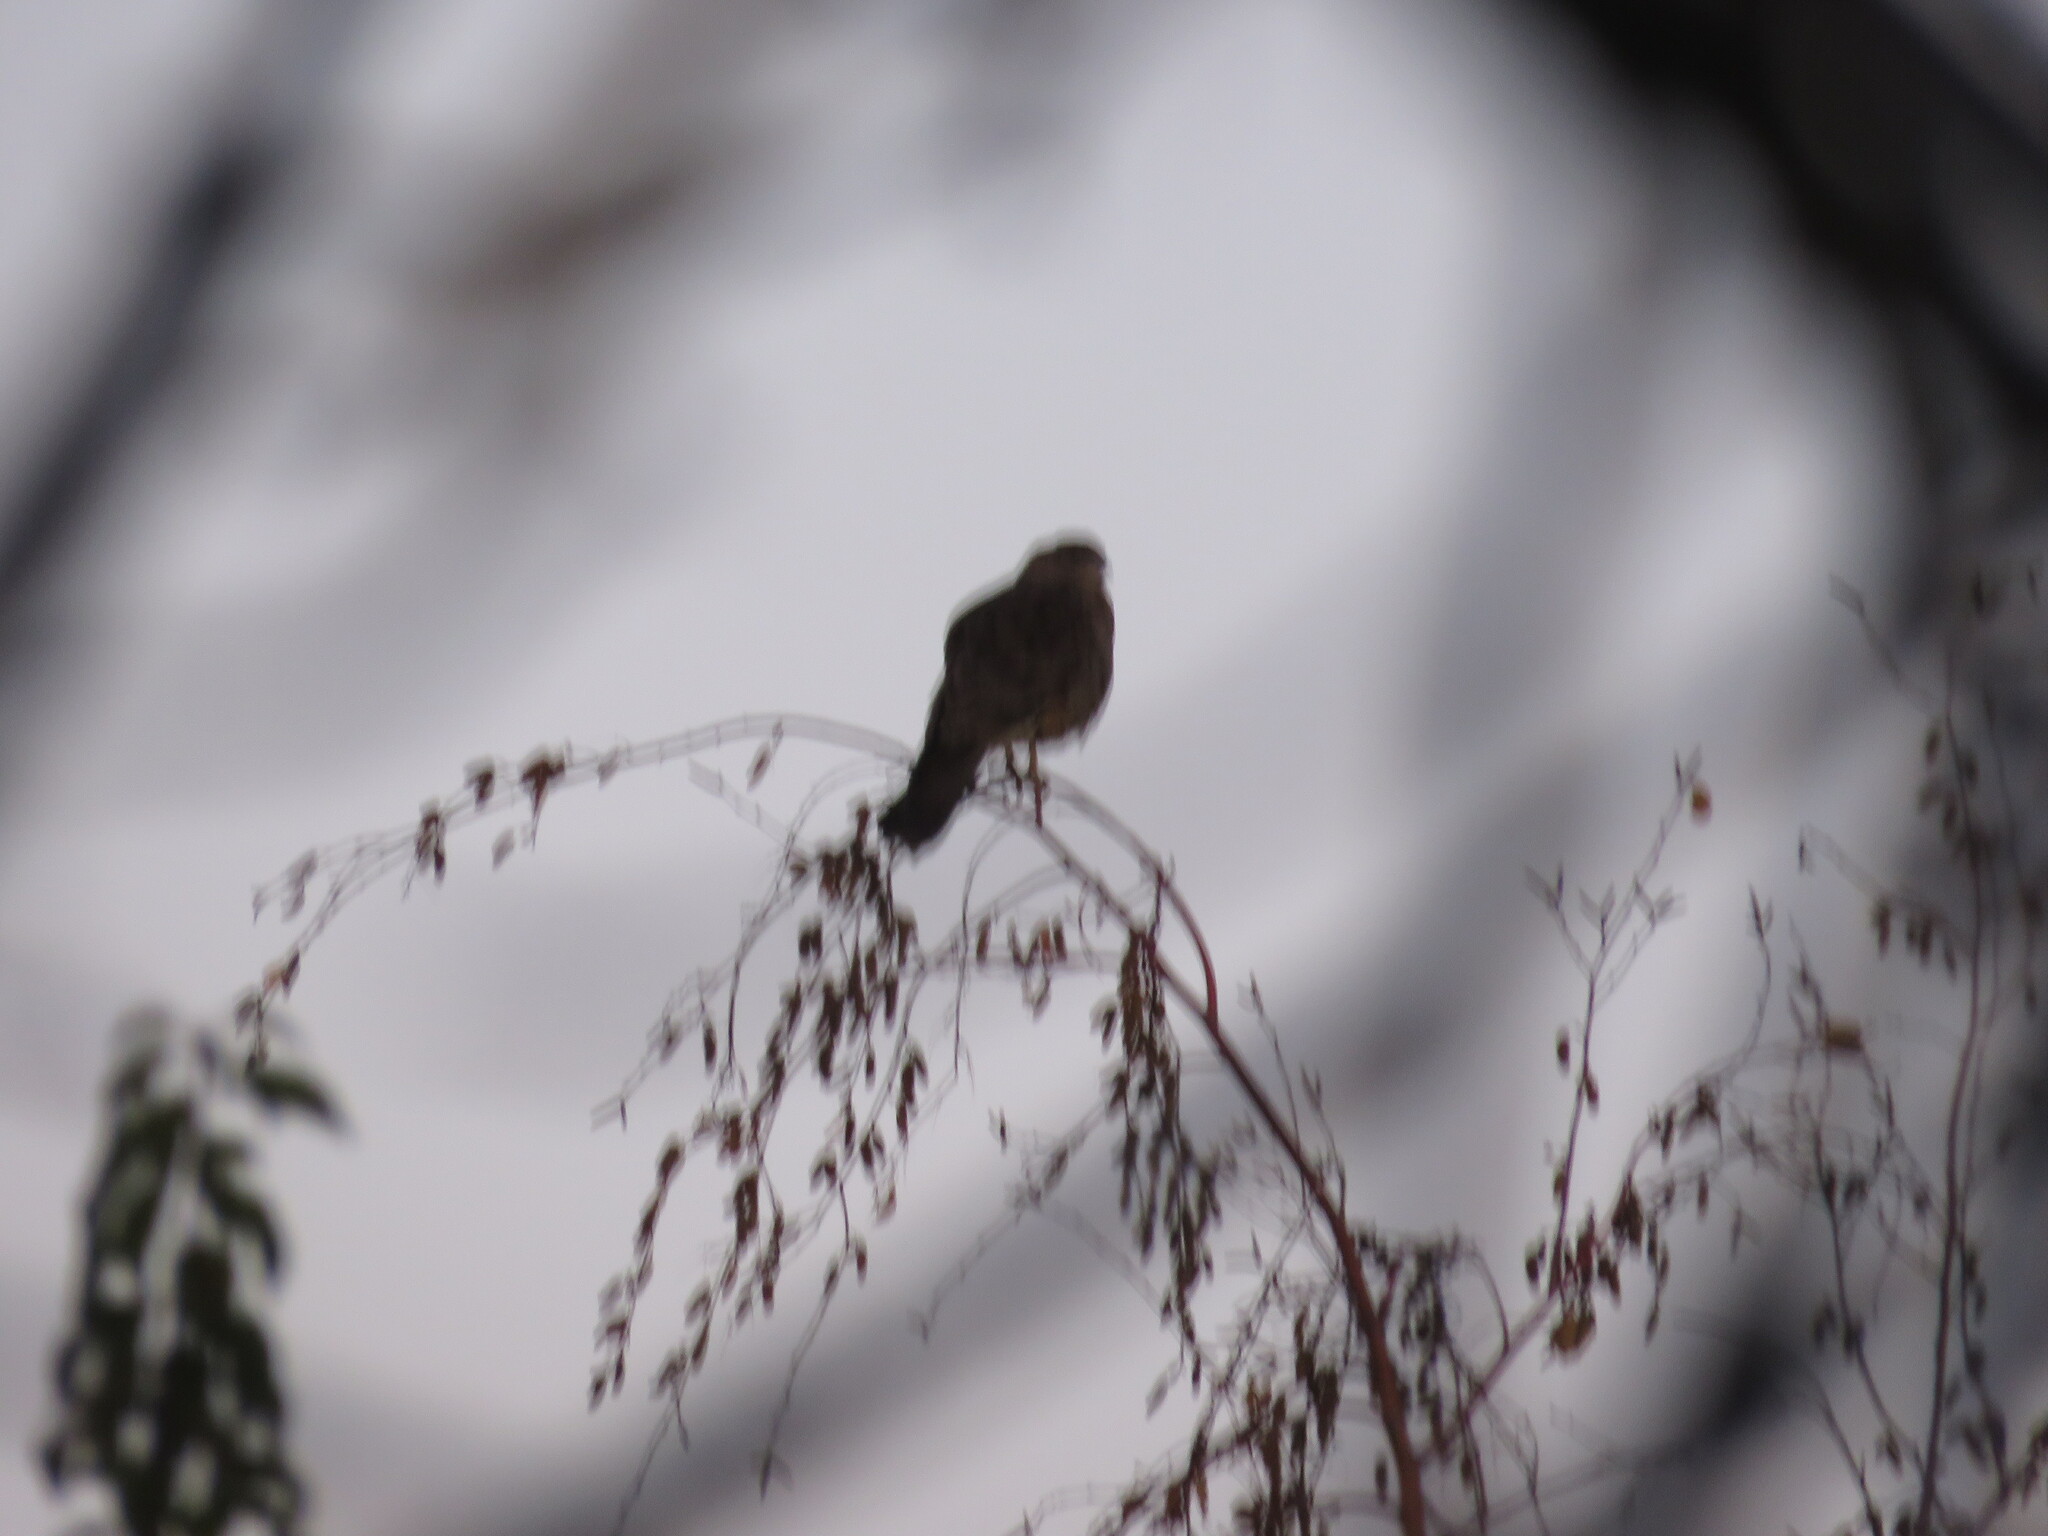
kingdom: Animalia
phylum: Chordata
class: Aves
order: Falconiformes
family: Falconidae
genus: Daptrius
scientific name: Daptrius
